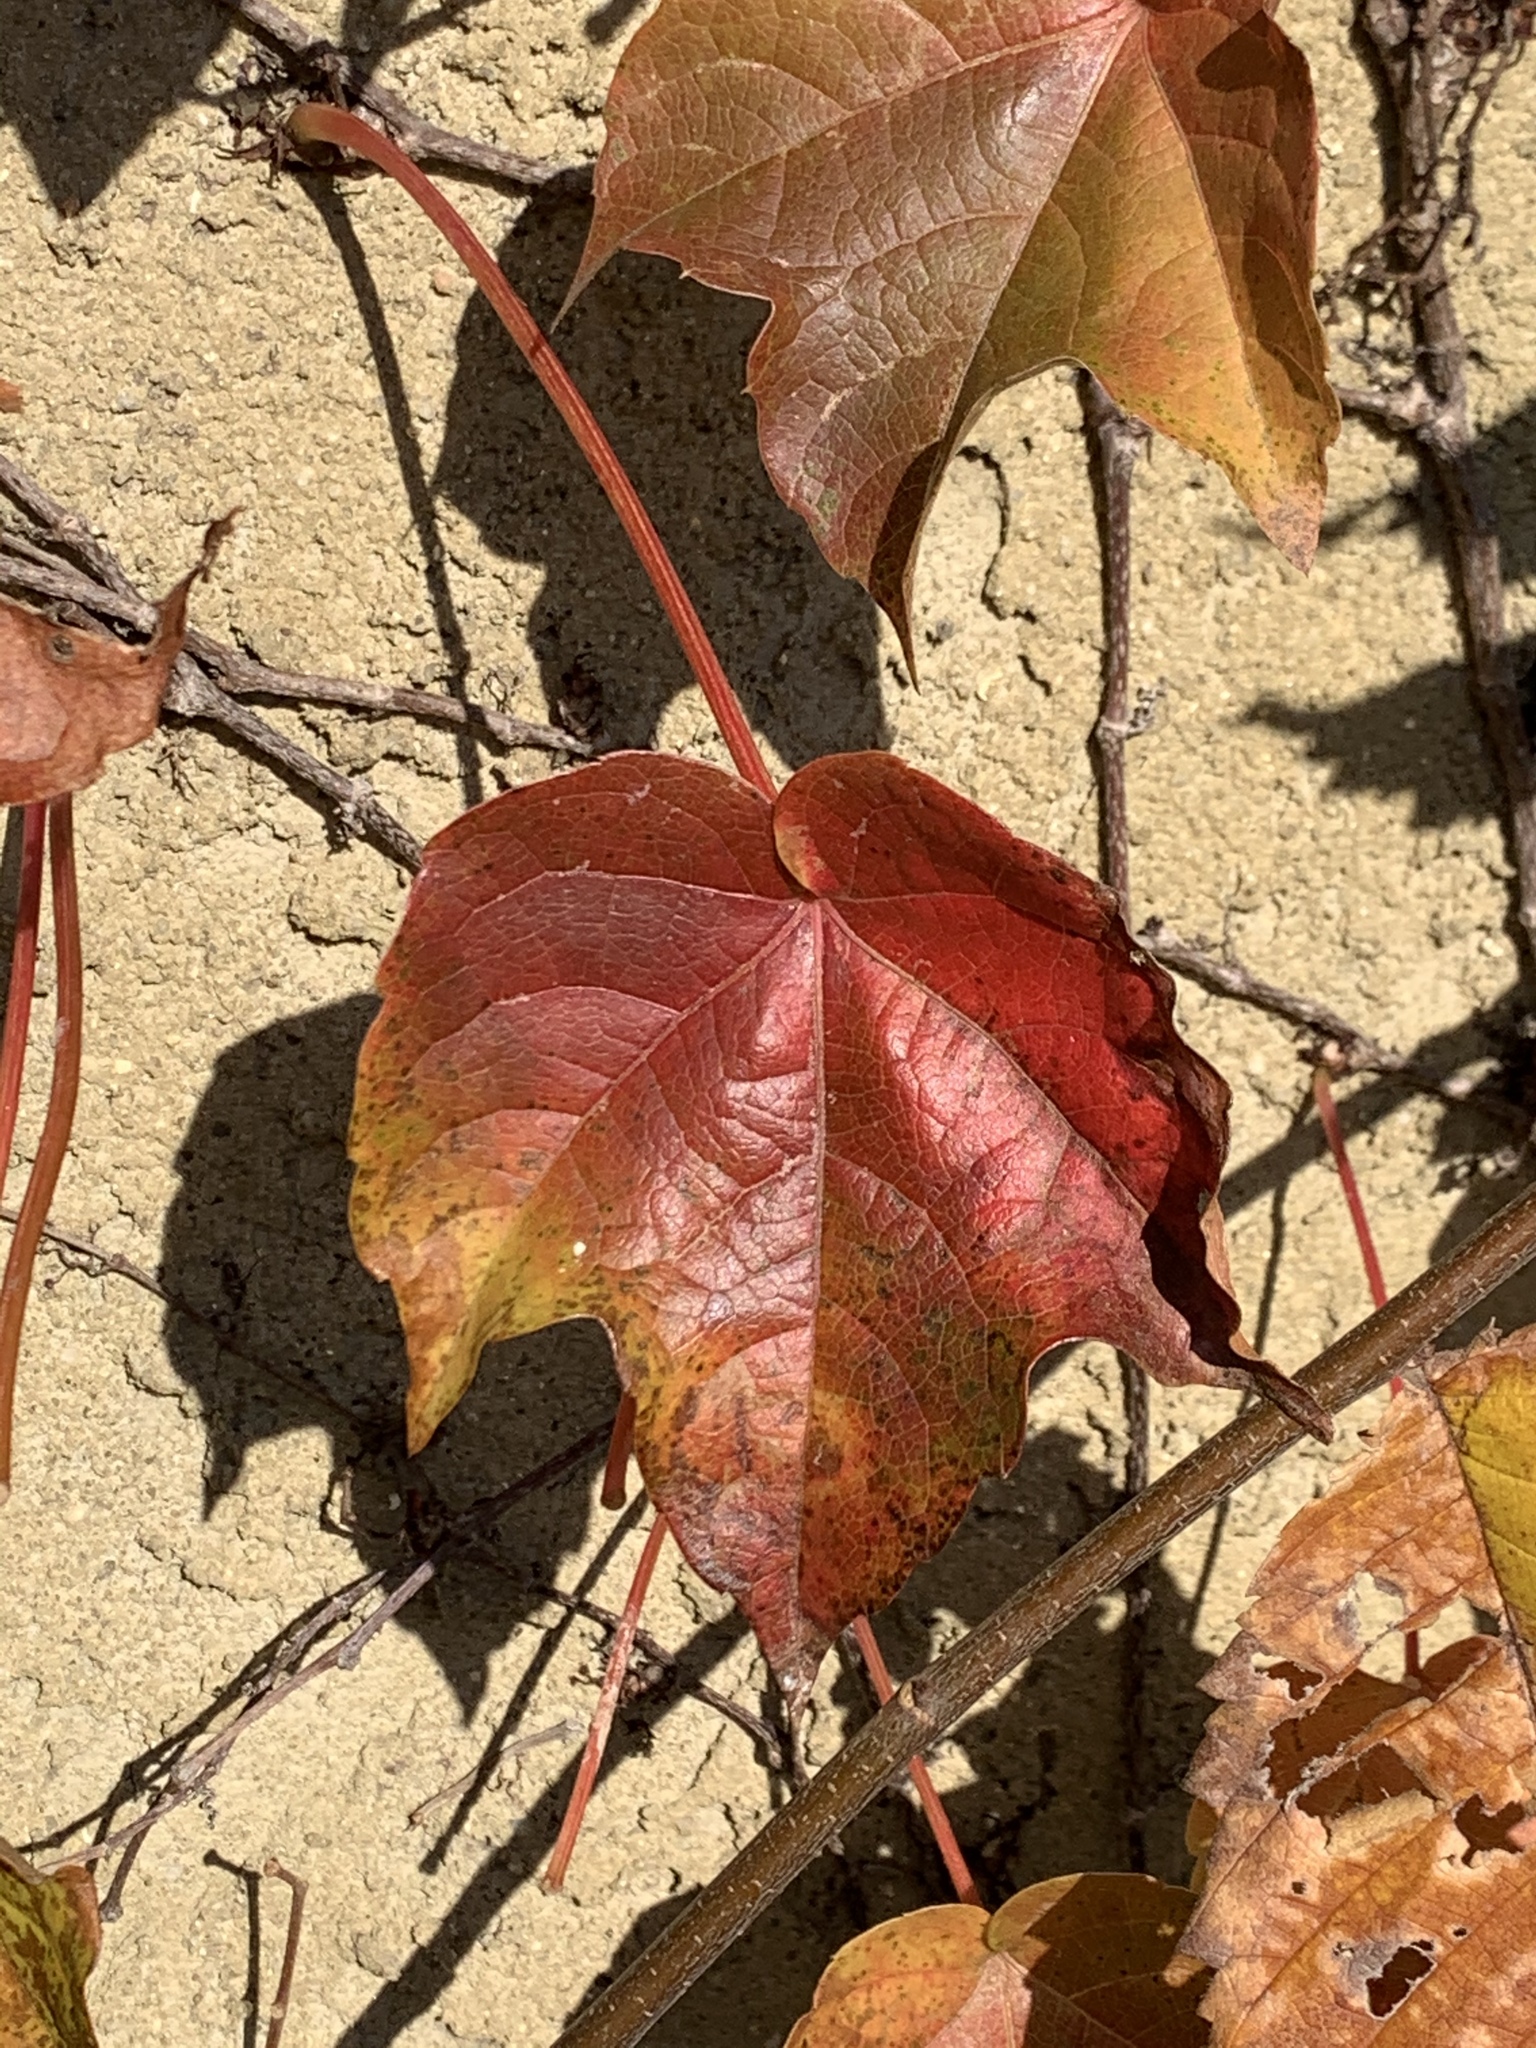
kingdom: Plantae
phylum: Tracheophyta
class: Magnoliopsida
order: Vitales
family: Vitaceae
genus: Parthenocissus
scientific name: Parthenocissus tricuspidata
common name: Boston ivy
